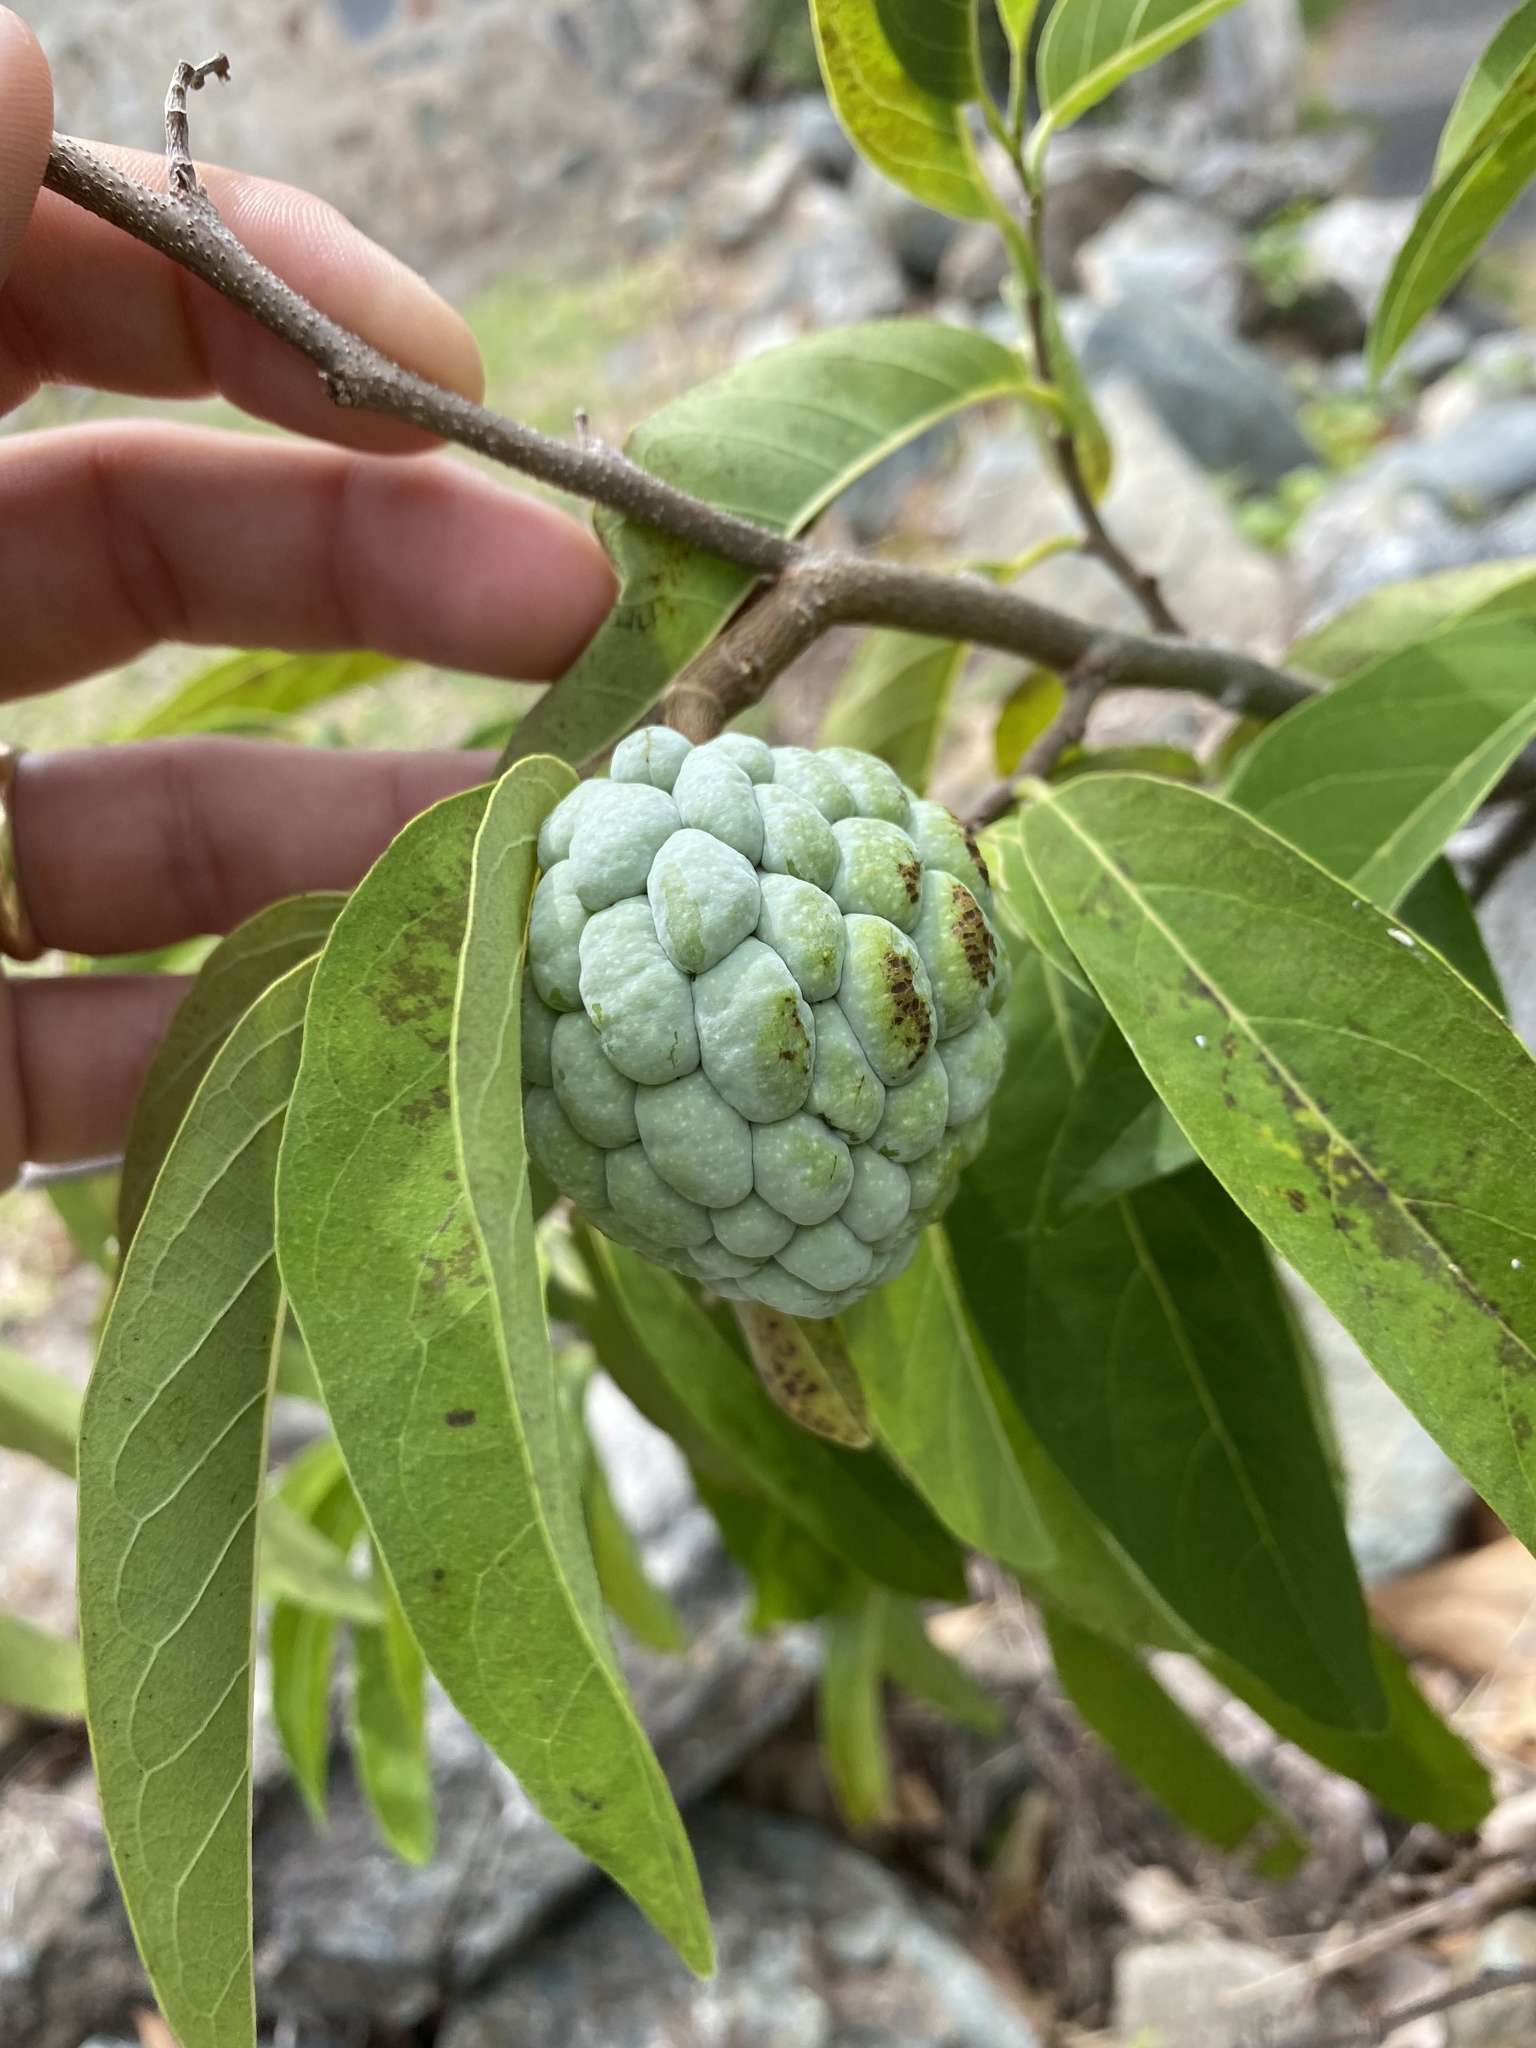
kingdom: Plantae
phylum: Tracheophyta
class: Magnoliopsida
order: Magnoliales
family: Annonaceae
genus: Annona
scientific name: Annona squamosa
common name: Custard-apple
